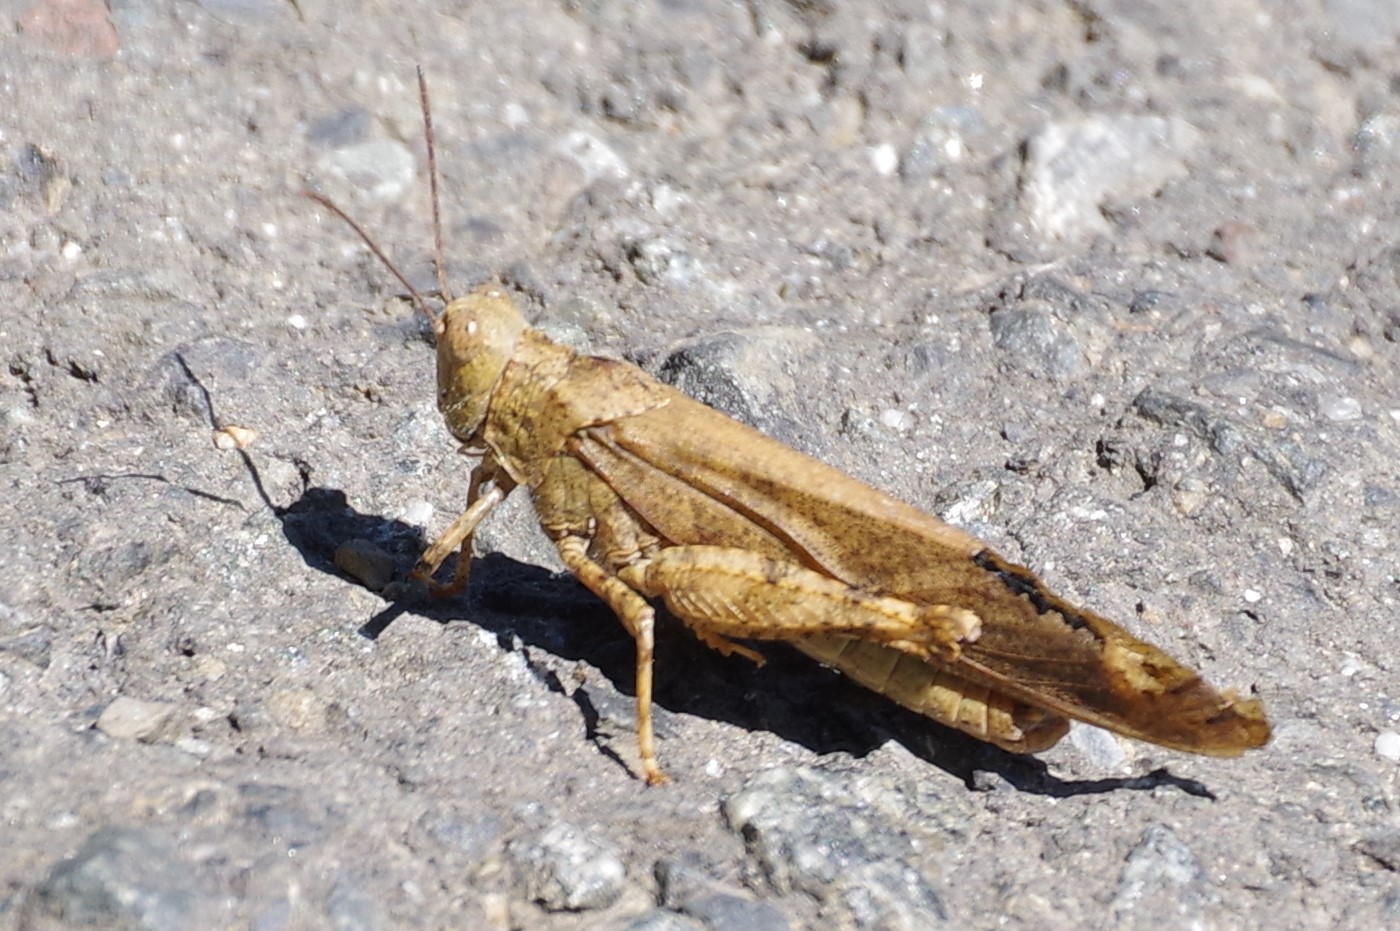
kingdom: Animalia
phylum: Arthropoda
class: Insecta
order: Orthoptera
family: Acrididae
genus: Dissosteira
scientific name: Dissosteira carolina
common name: Carolina grasshopper
